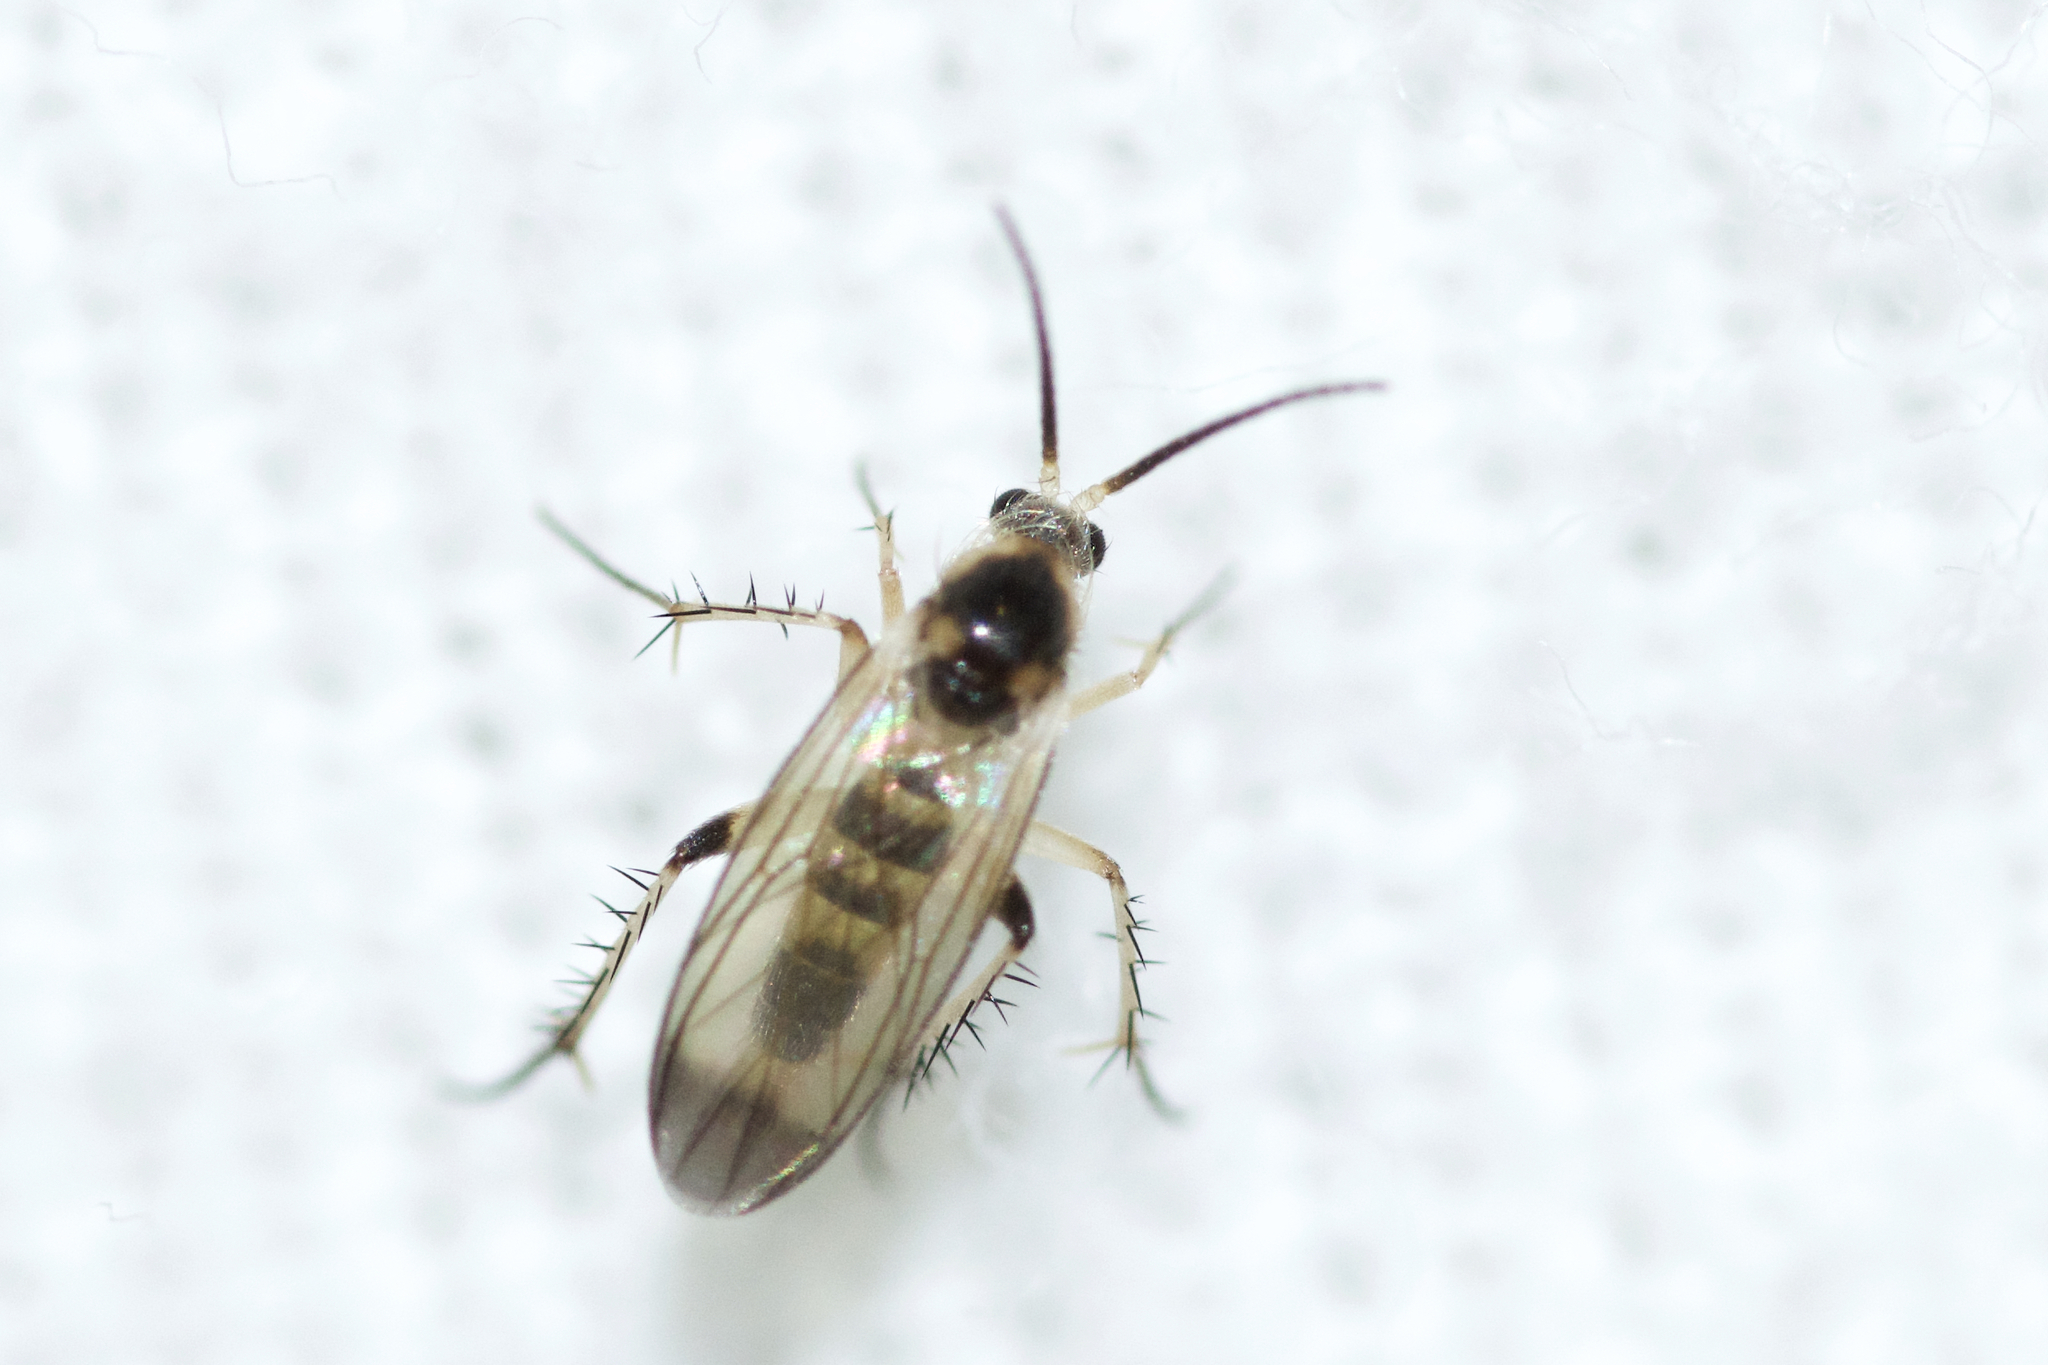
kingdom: Animalia
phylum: Arthropoda
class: Insecta
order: Diptera
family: Mycetophilidae
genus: Rondaniella
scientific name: Rondaniella dimidiata
